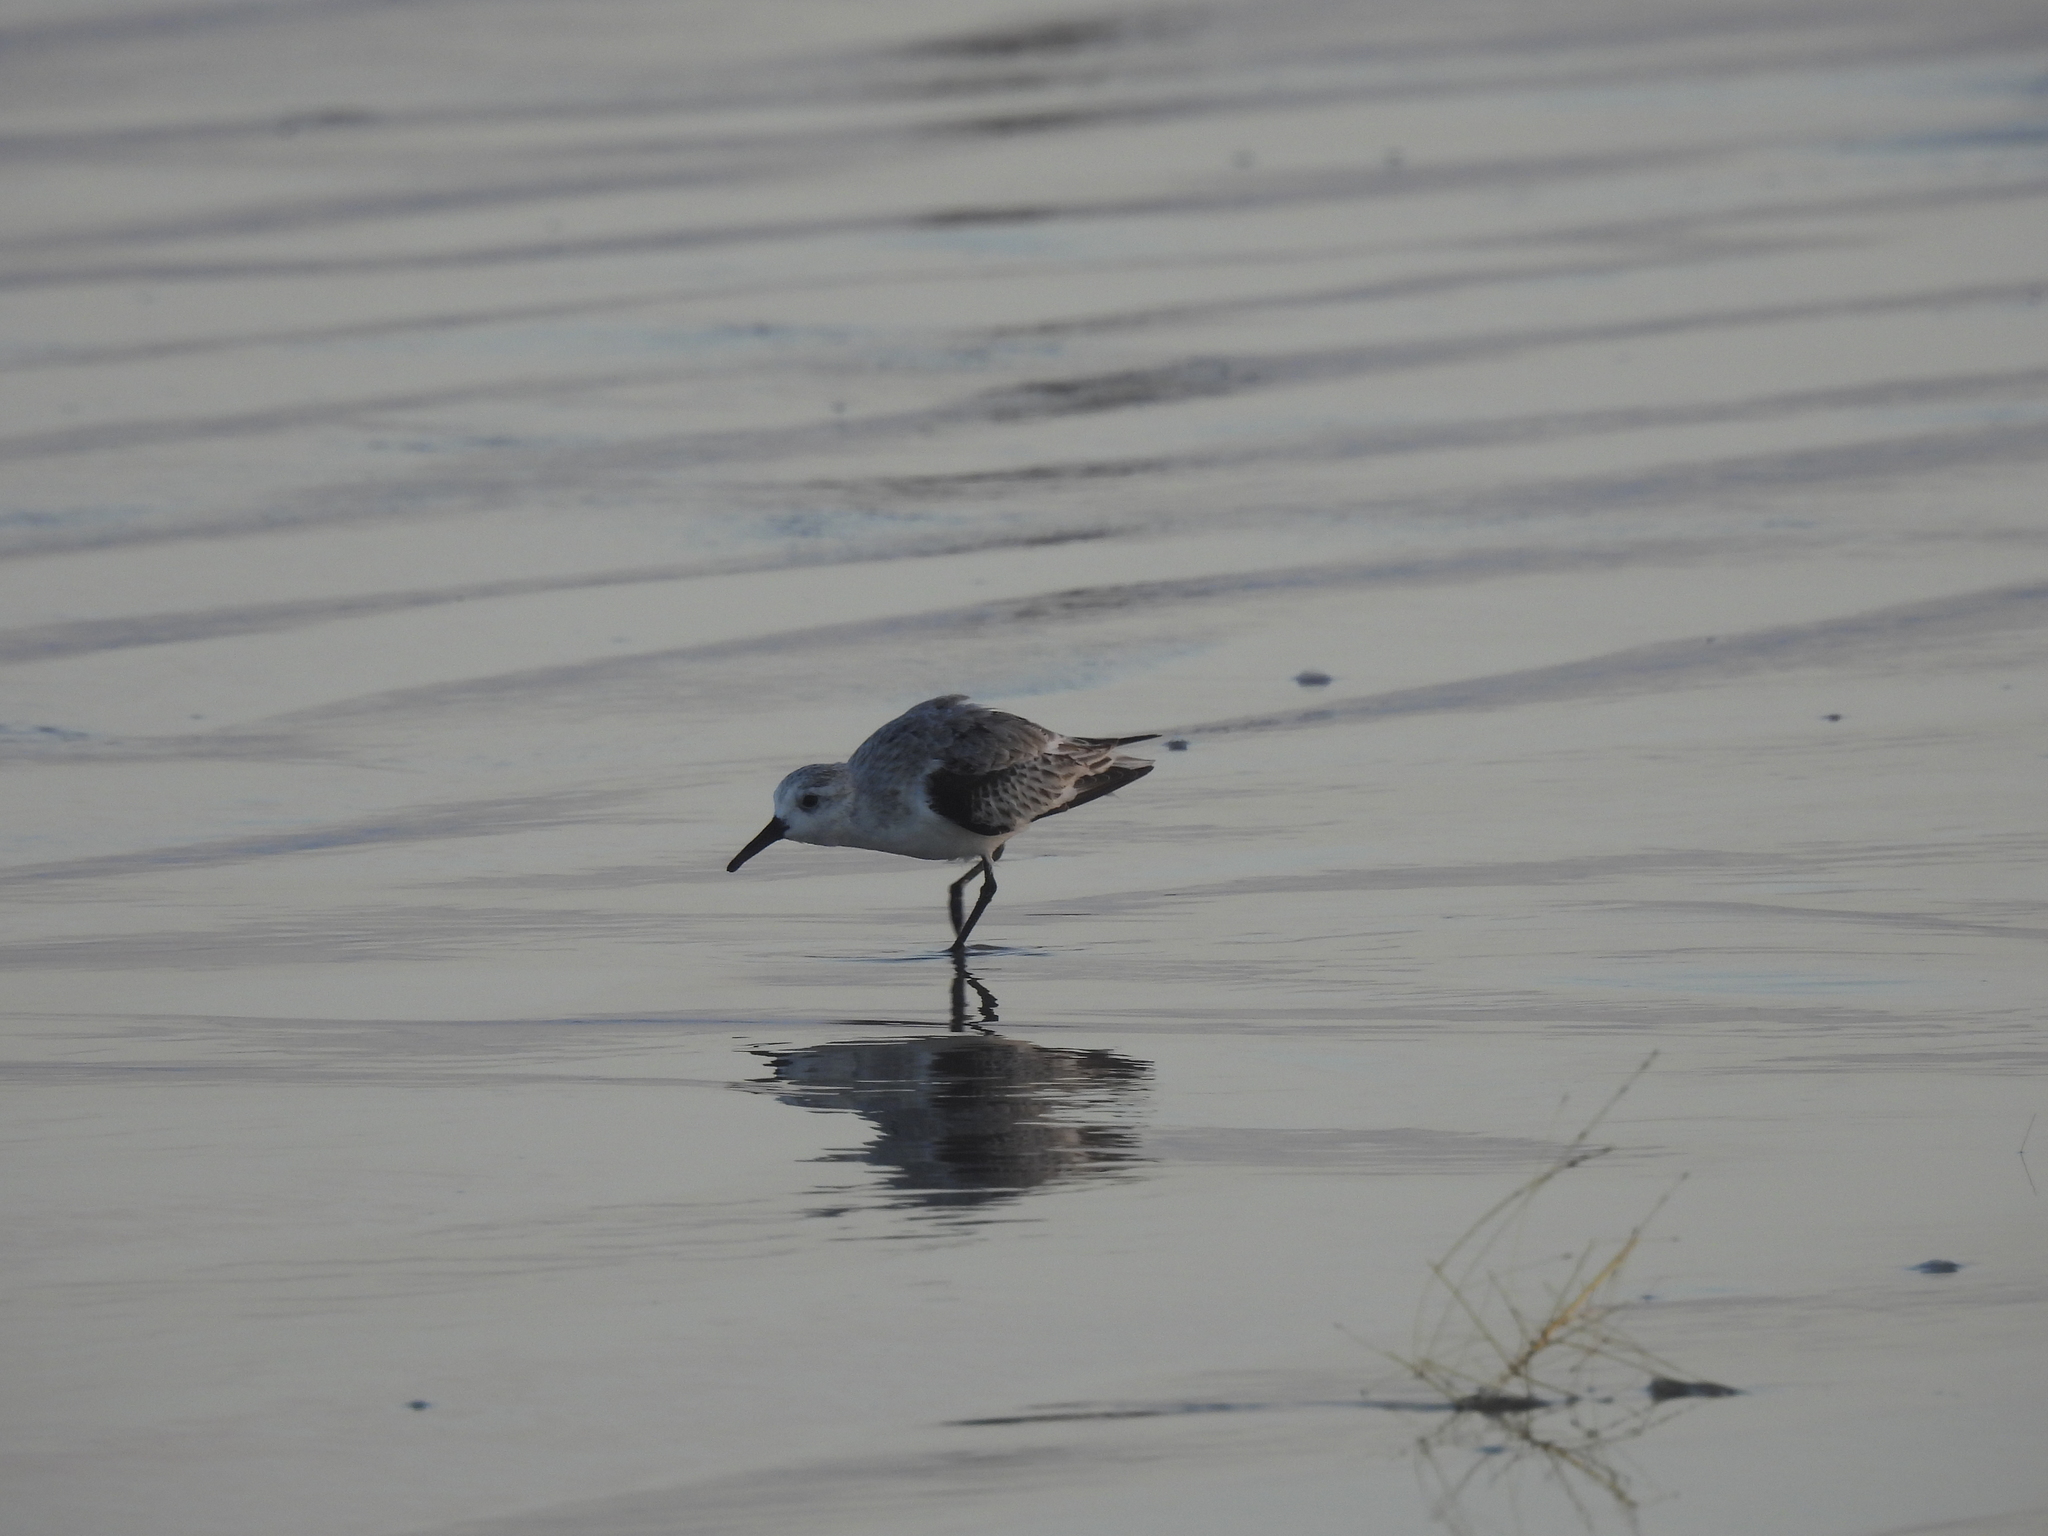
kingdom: Animalia
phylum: Chordata
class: Aves
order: Charadriiformes
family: Scolopacidae
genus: Calidris
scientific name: Calidris alba
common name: Sanderling
